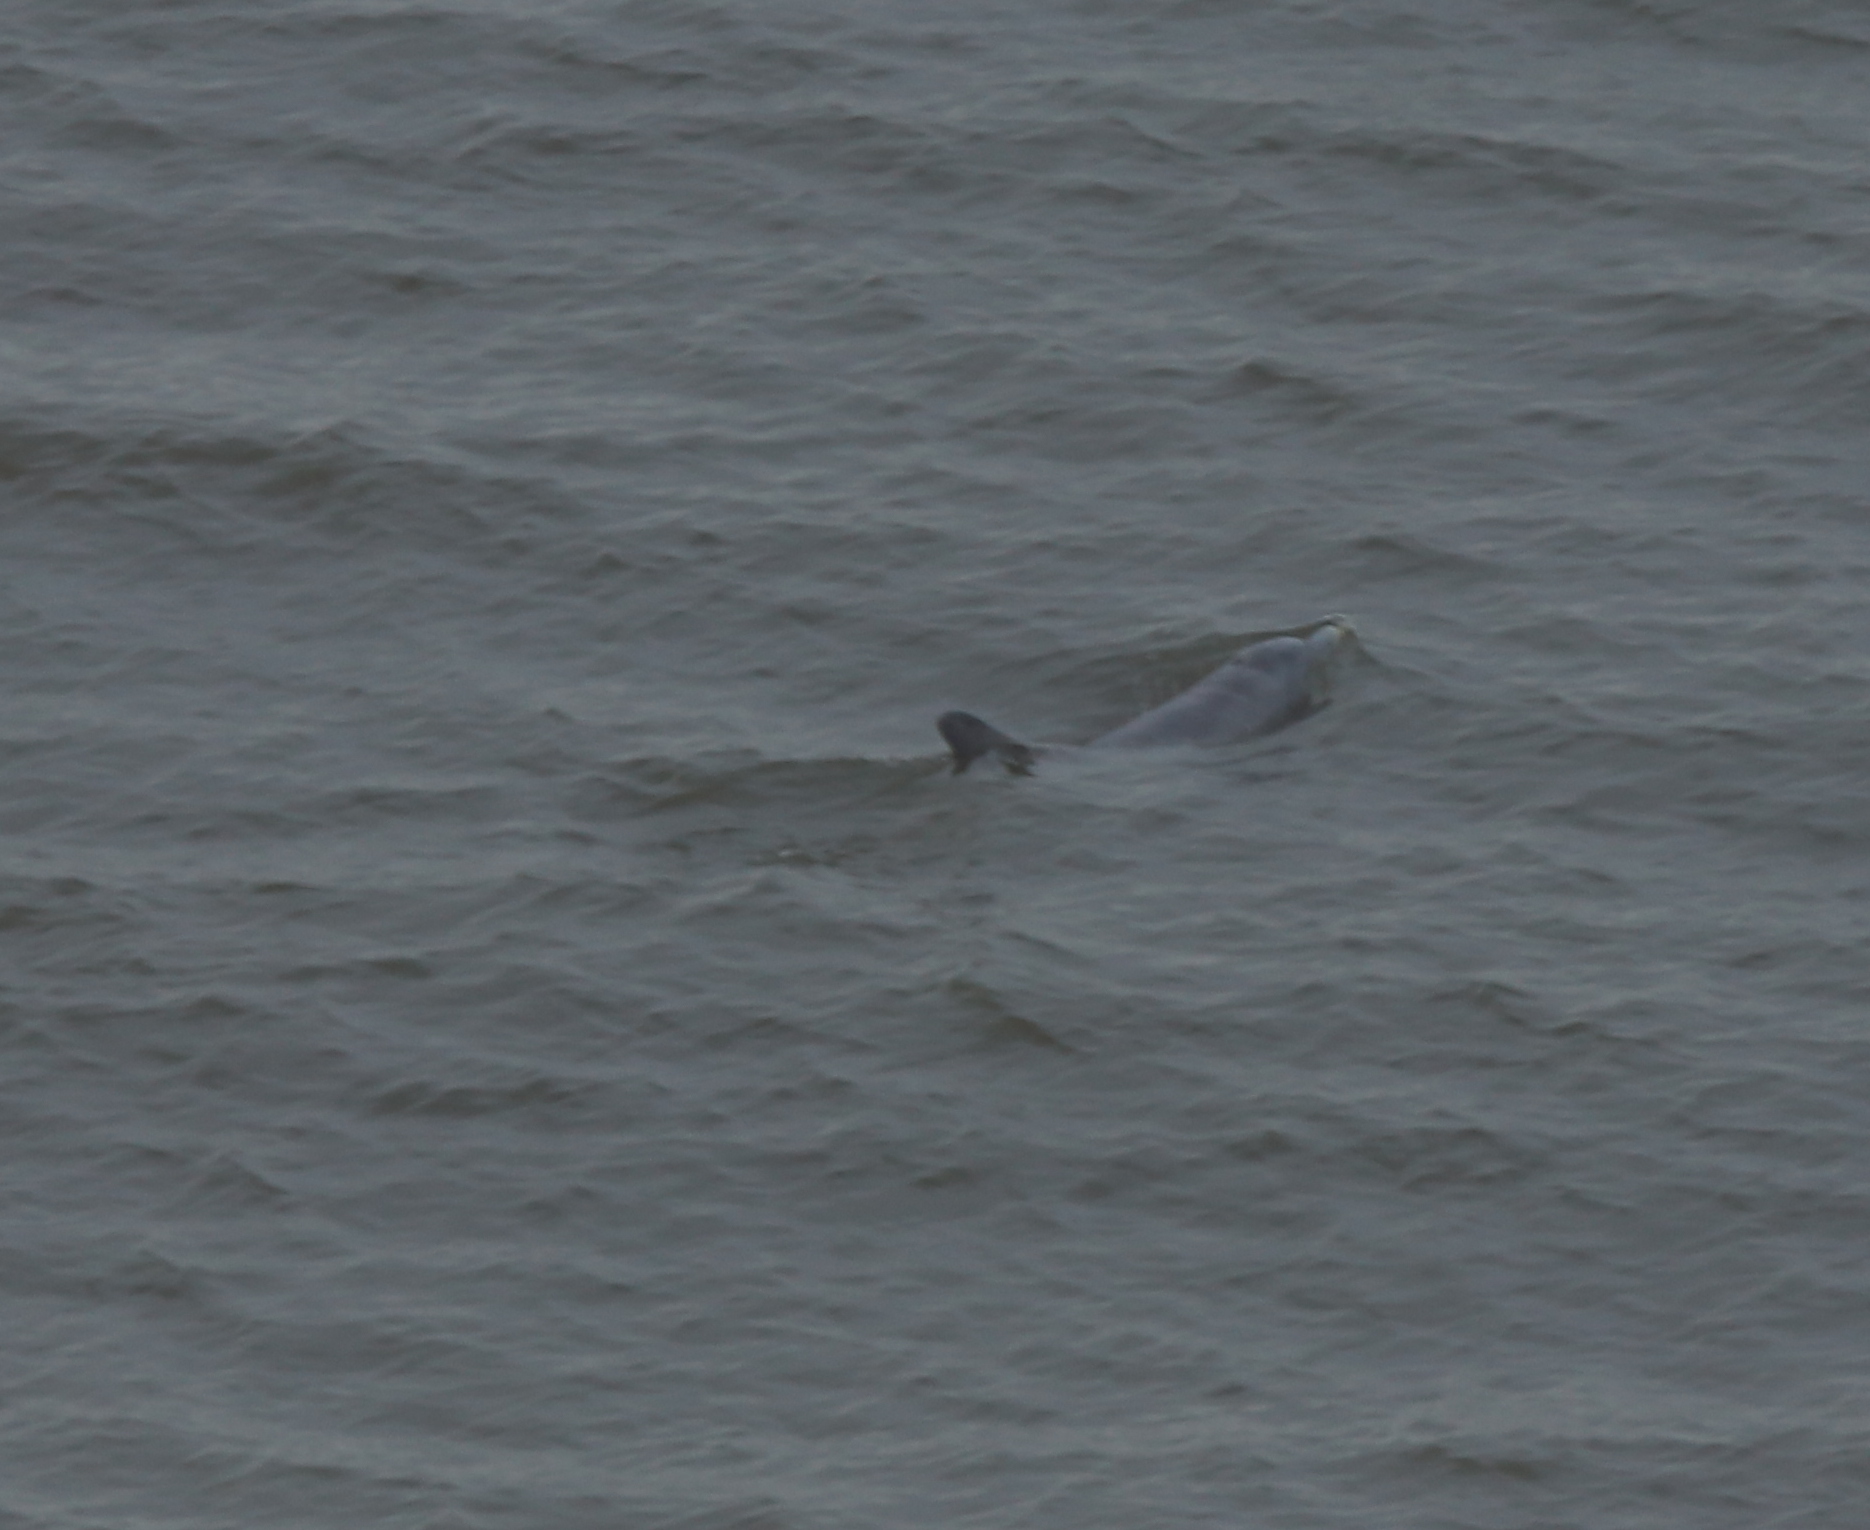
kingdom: Animalia
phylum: Chordata
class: Mammalia
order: Cetacea
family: Delphinidae
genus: Tursiops
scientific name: Tursiops truncatus
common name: Bottlenose dolphin
